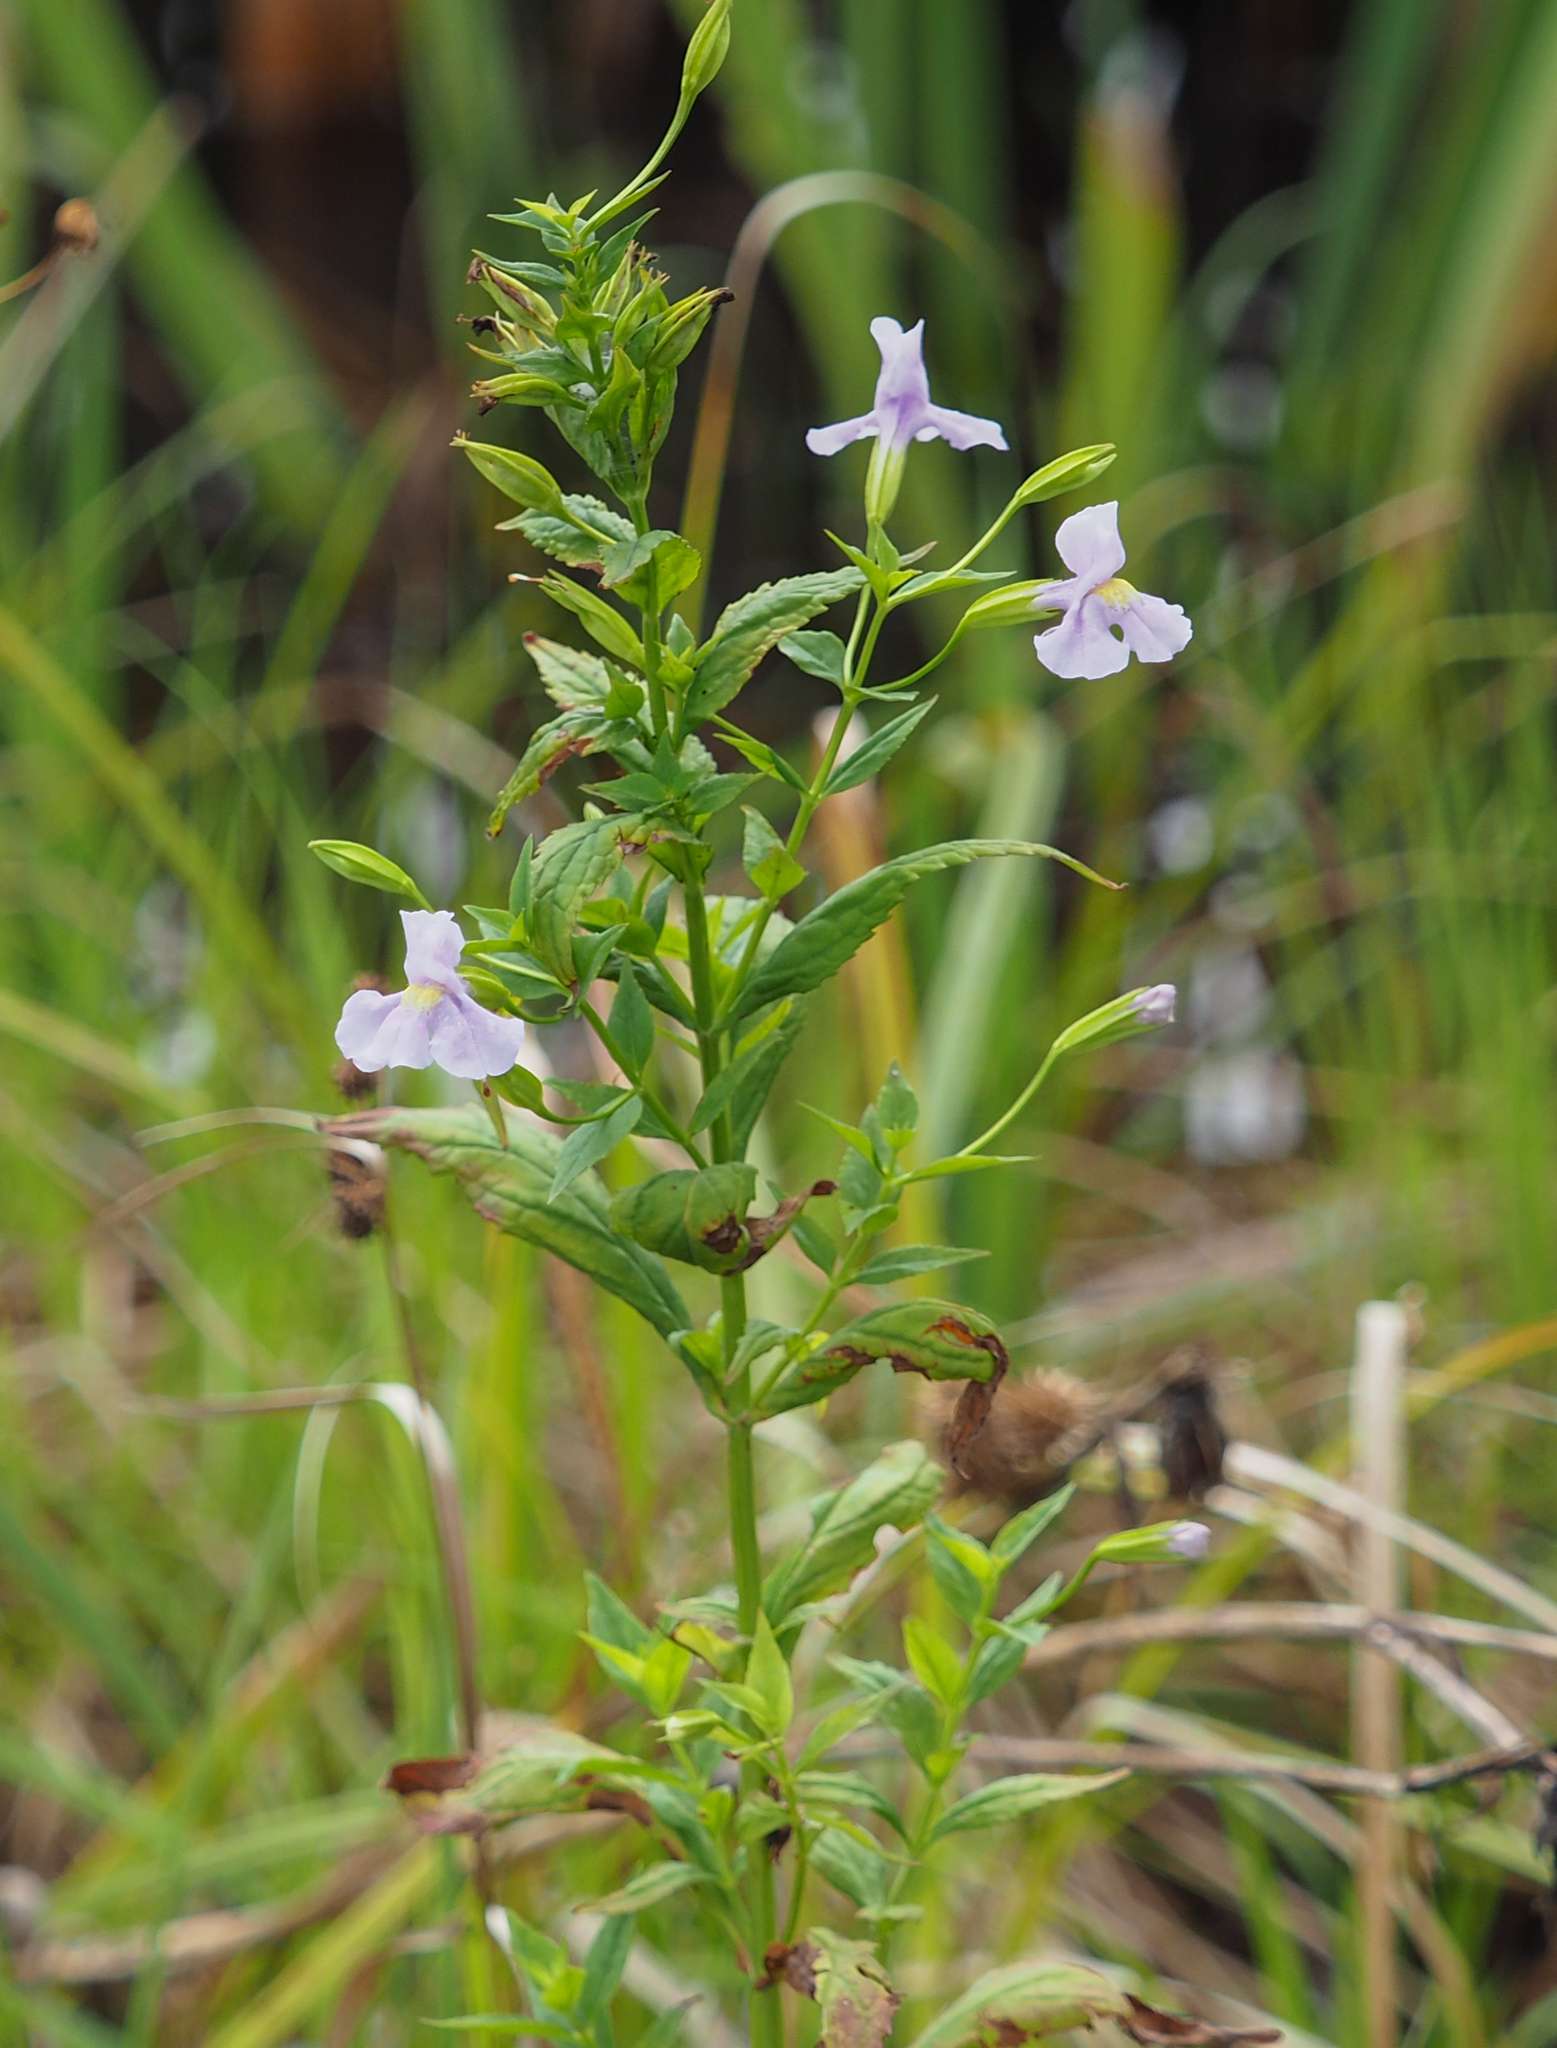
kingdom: Plantae
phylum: Tracheophyta
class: Magnoliopsida
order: Lamiales
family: Phrymaceae
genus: Mimulus
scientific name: Mimulus ringens
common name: Allegheny monkeyflower
